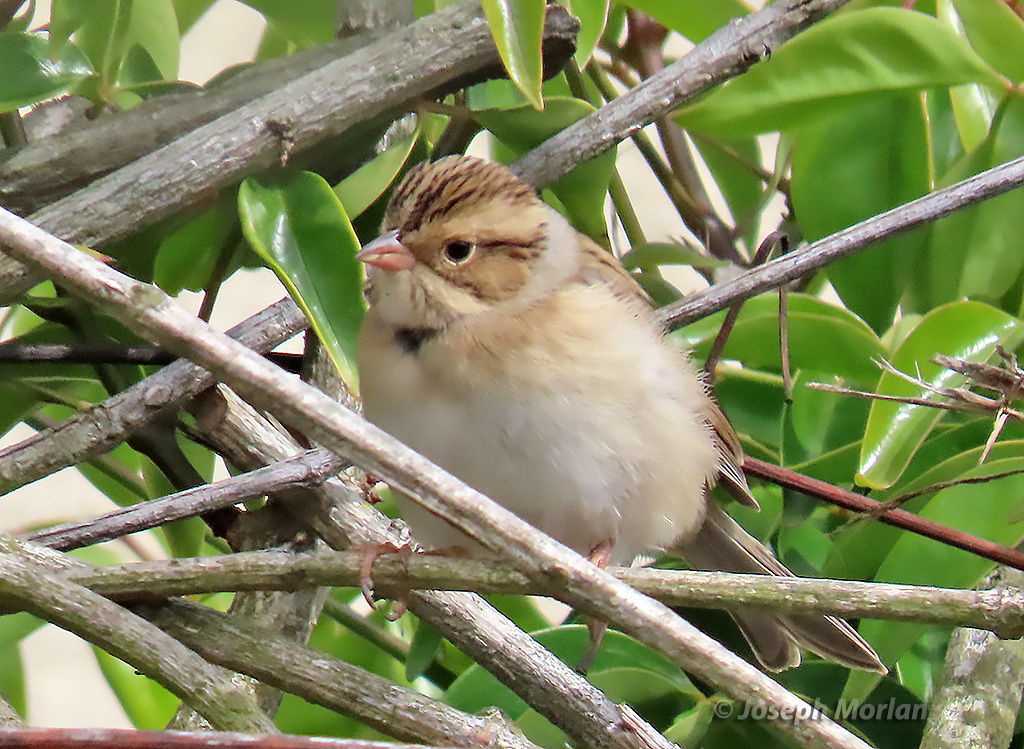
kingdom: Animalia
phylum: Chordata
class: Aves
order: Passeriformes
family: Passerellidae
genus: Spizella
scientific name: Spizella pallida
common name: Clay-colored sparrow
